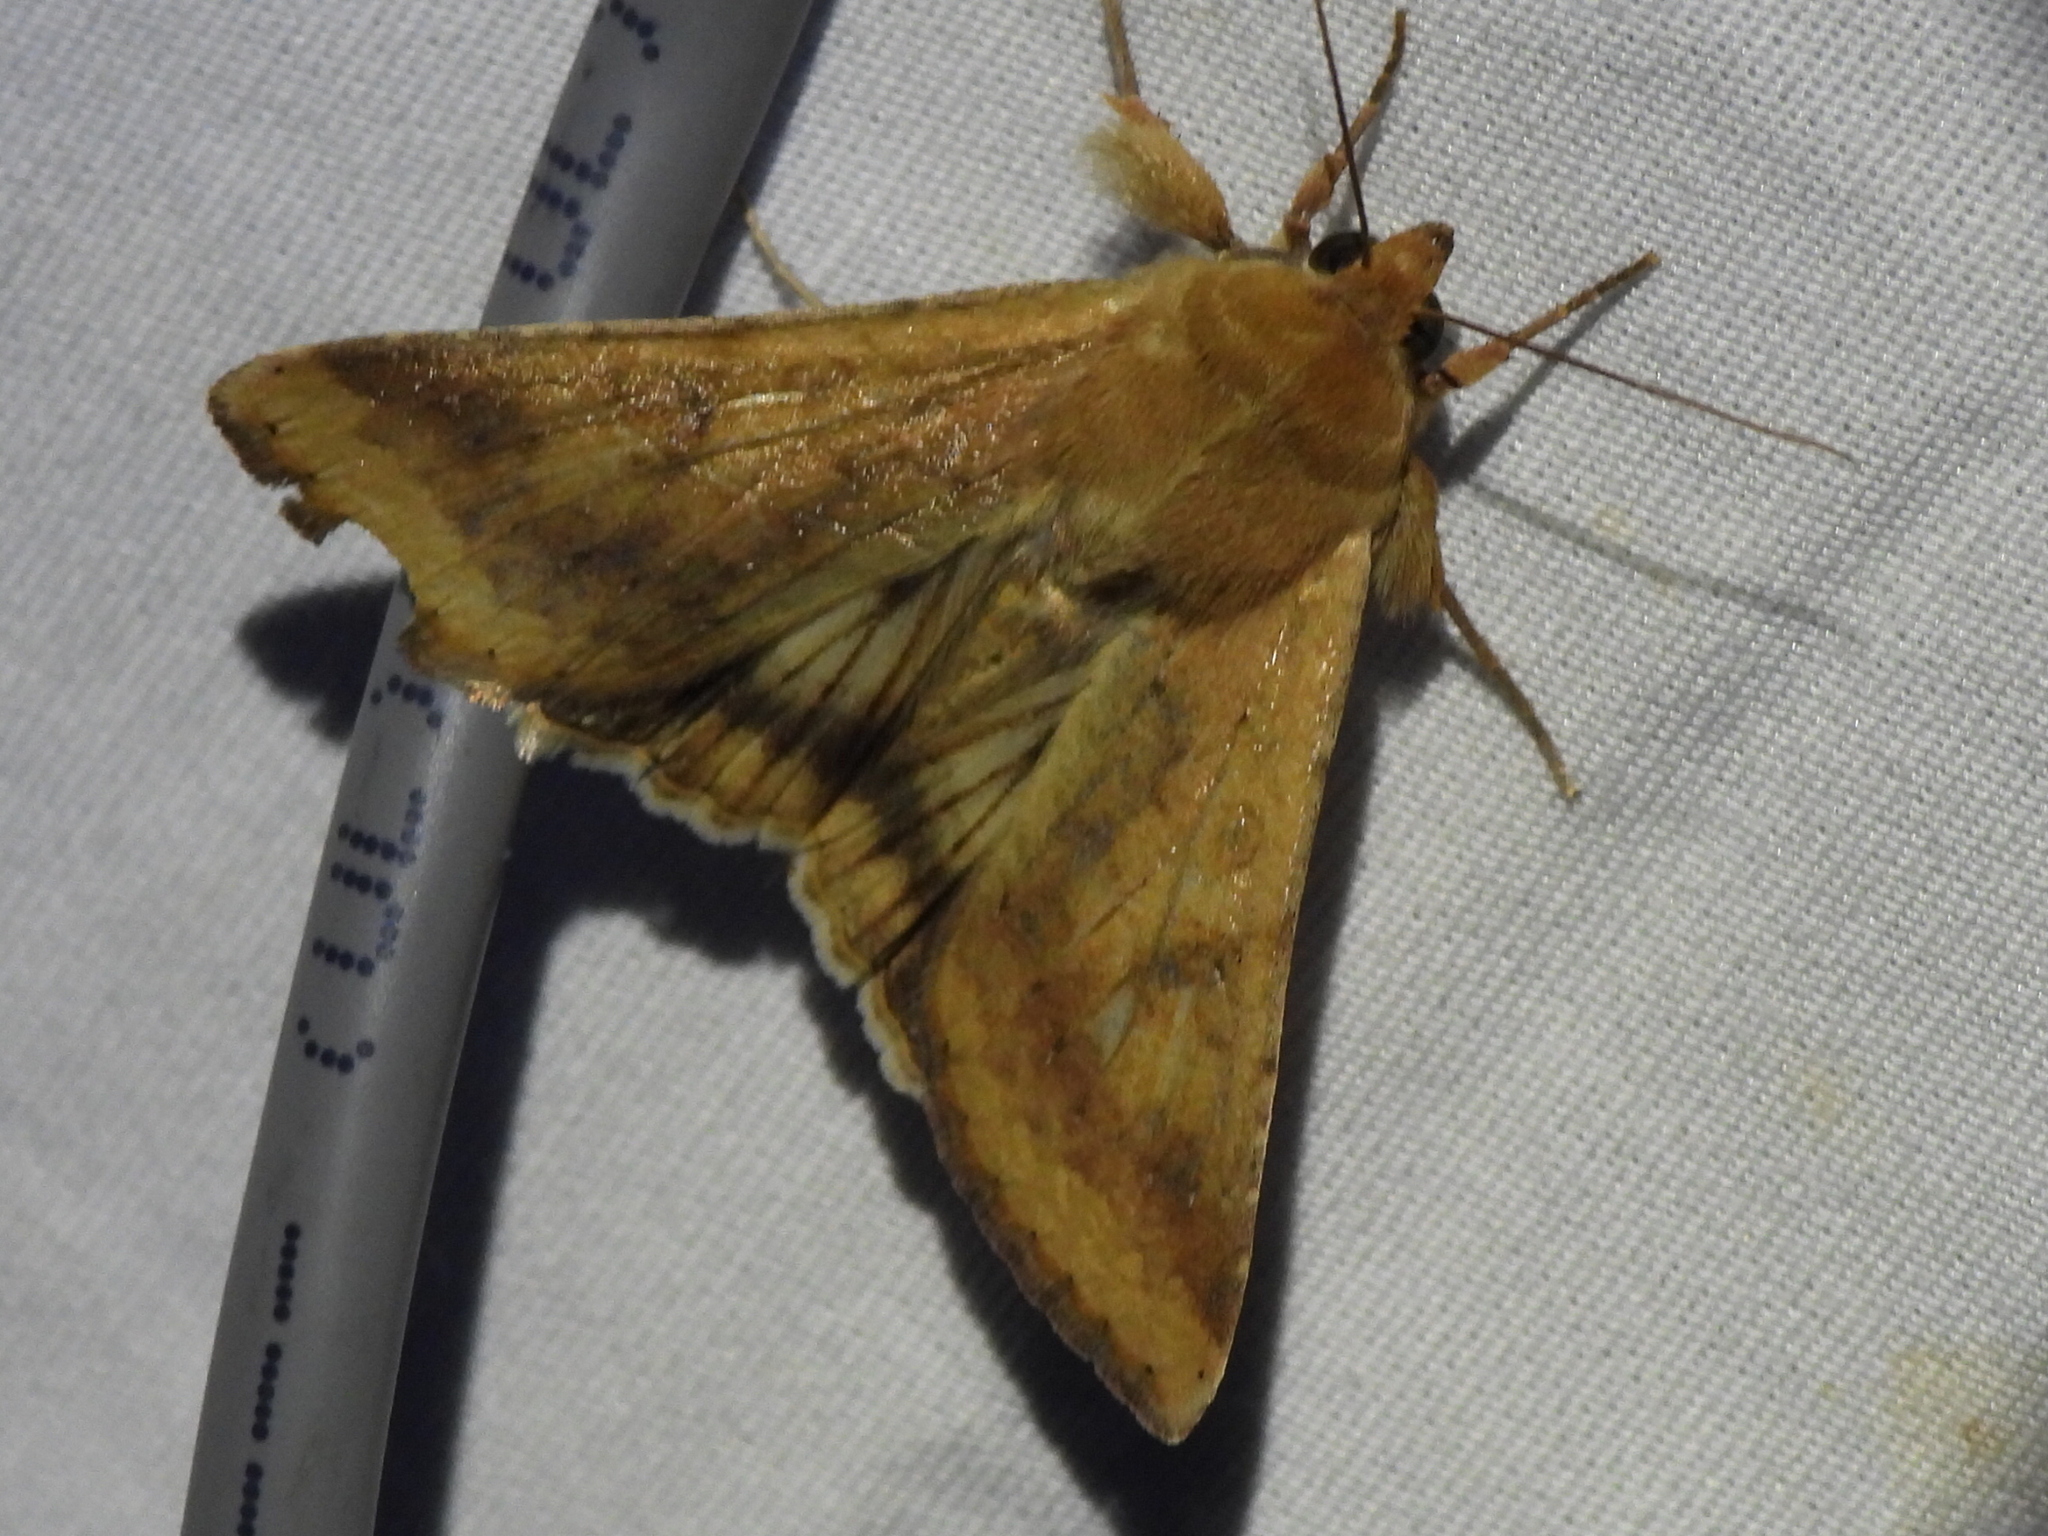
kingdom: Animalia
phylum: Arthropoda
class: Insecta
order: Lepidoptera
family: Noctuidae
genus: Helicoverpa
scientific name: Helicoverpa zea
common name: Bollworm
